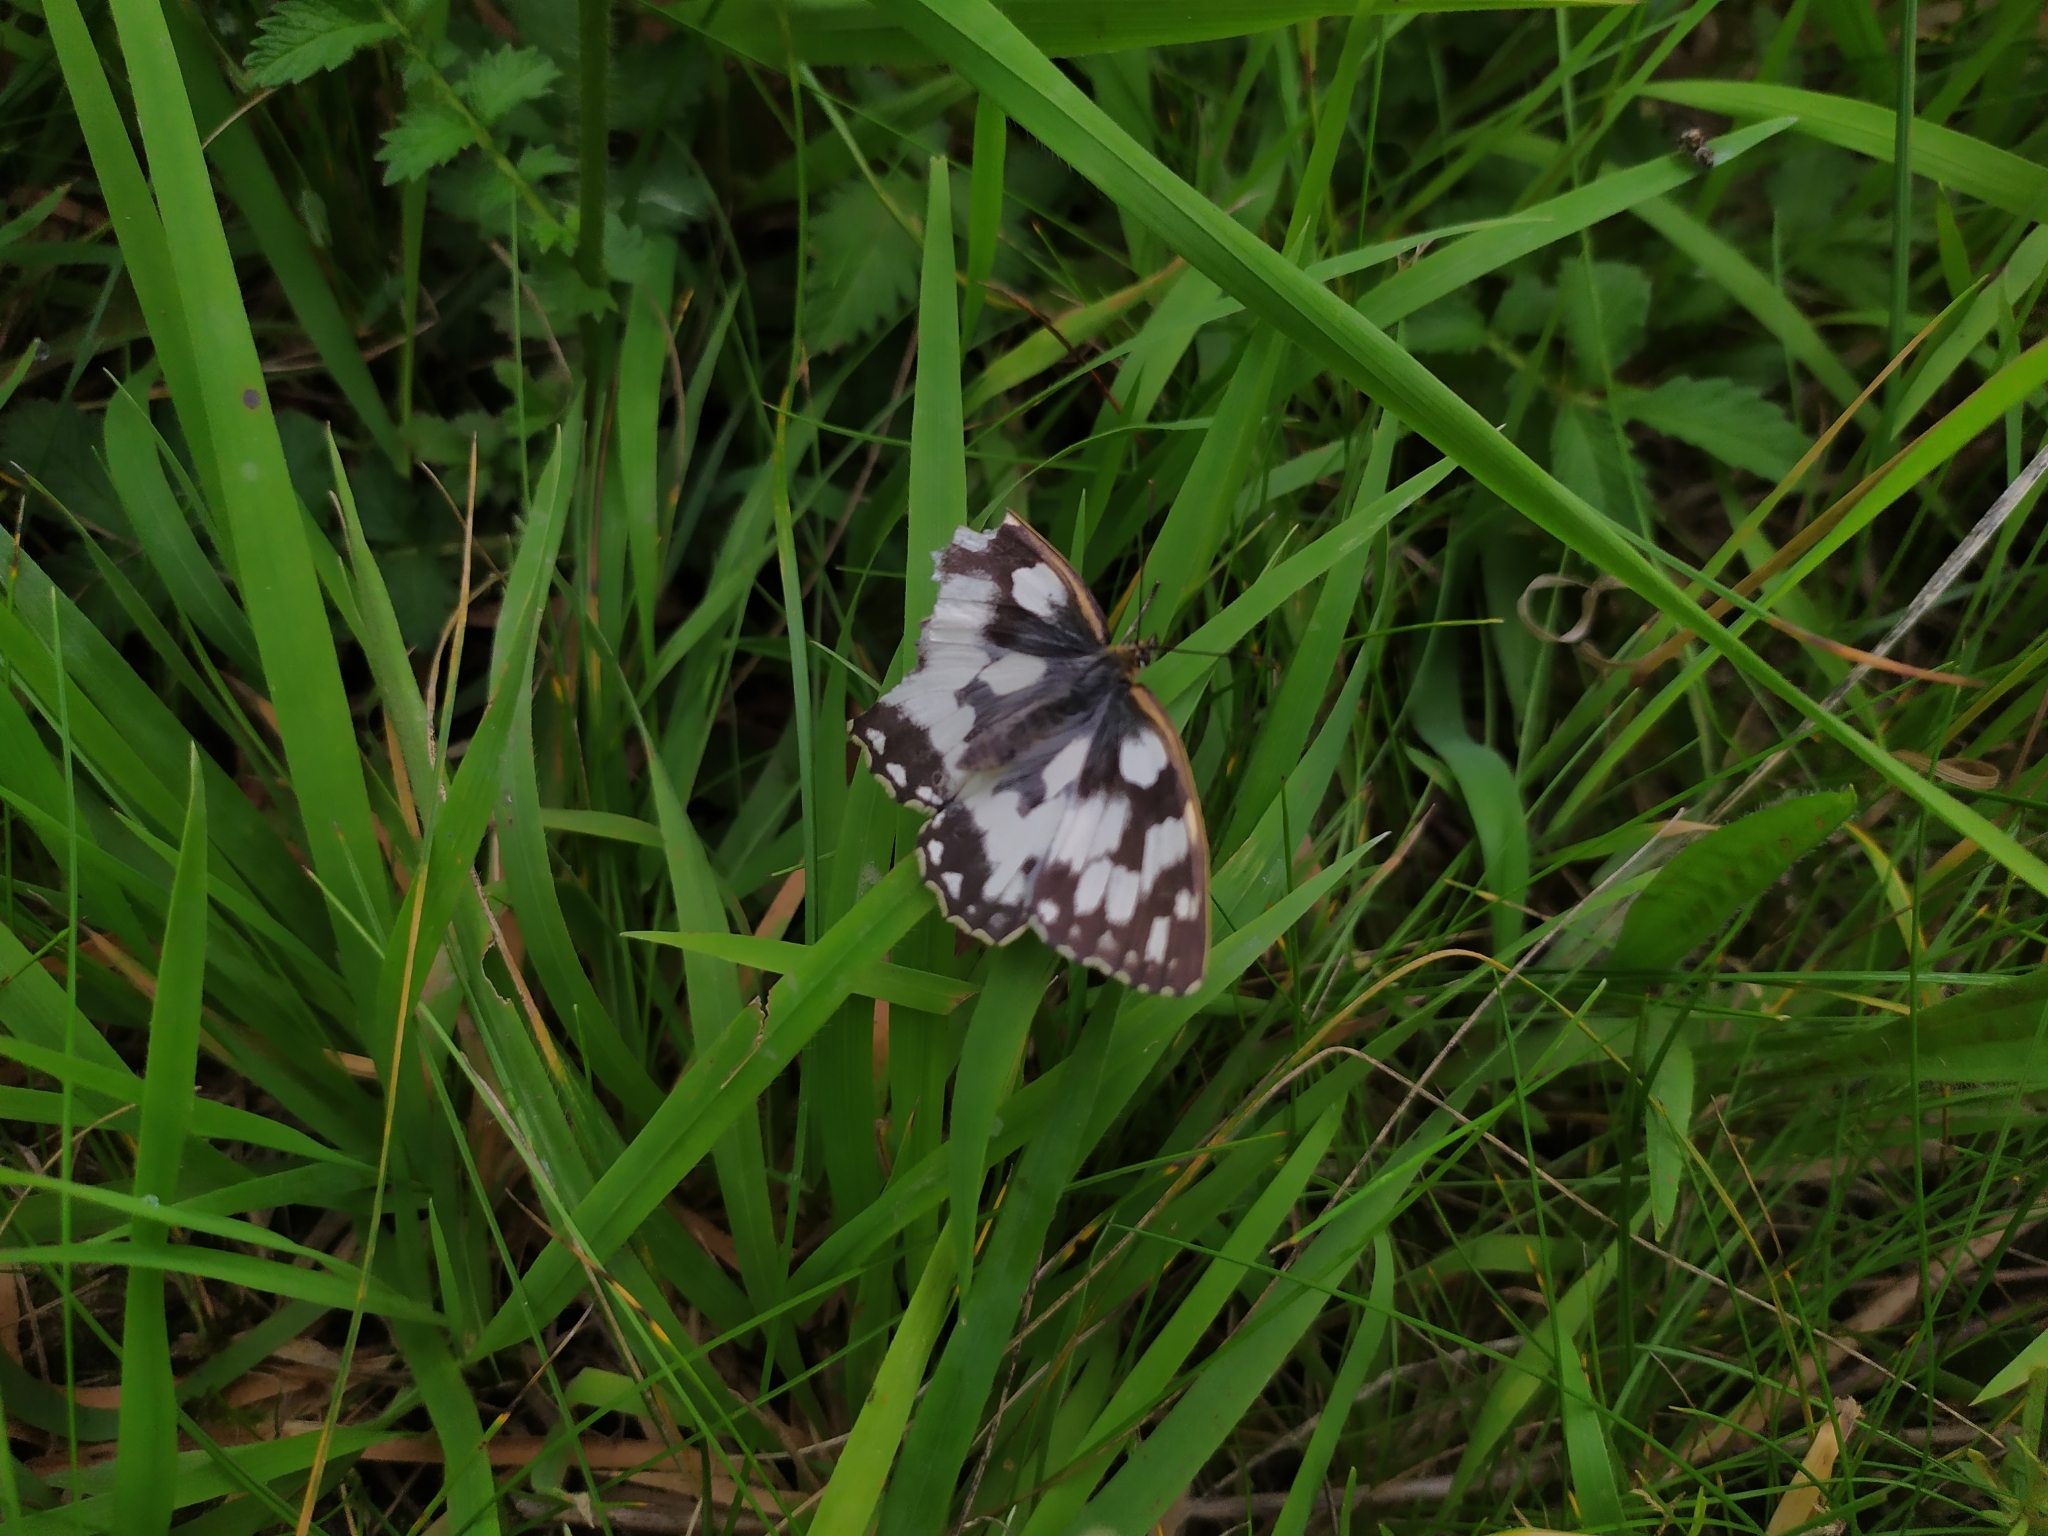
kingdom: Animalia
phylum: Arthropoda
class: Insecta
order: Lepidoptera
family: Nymphalidae
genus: Melanargia
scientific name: Melanargia galathea
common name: Marbled white
